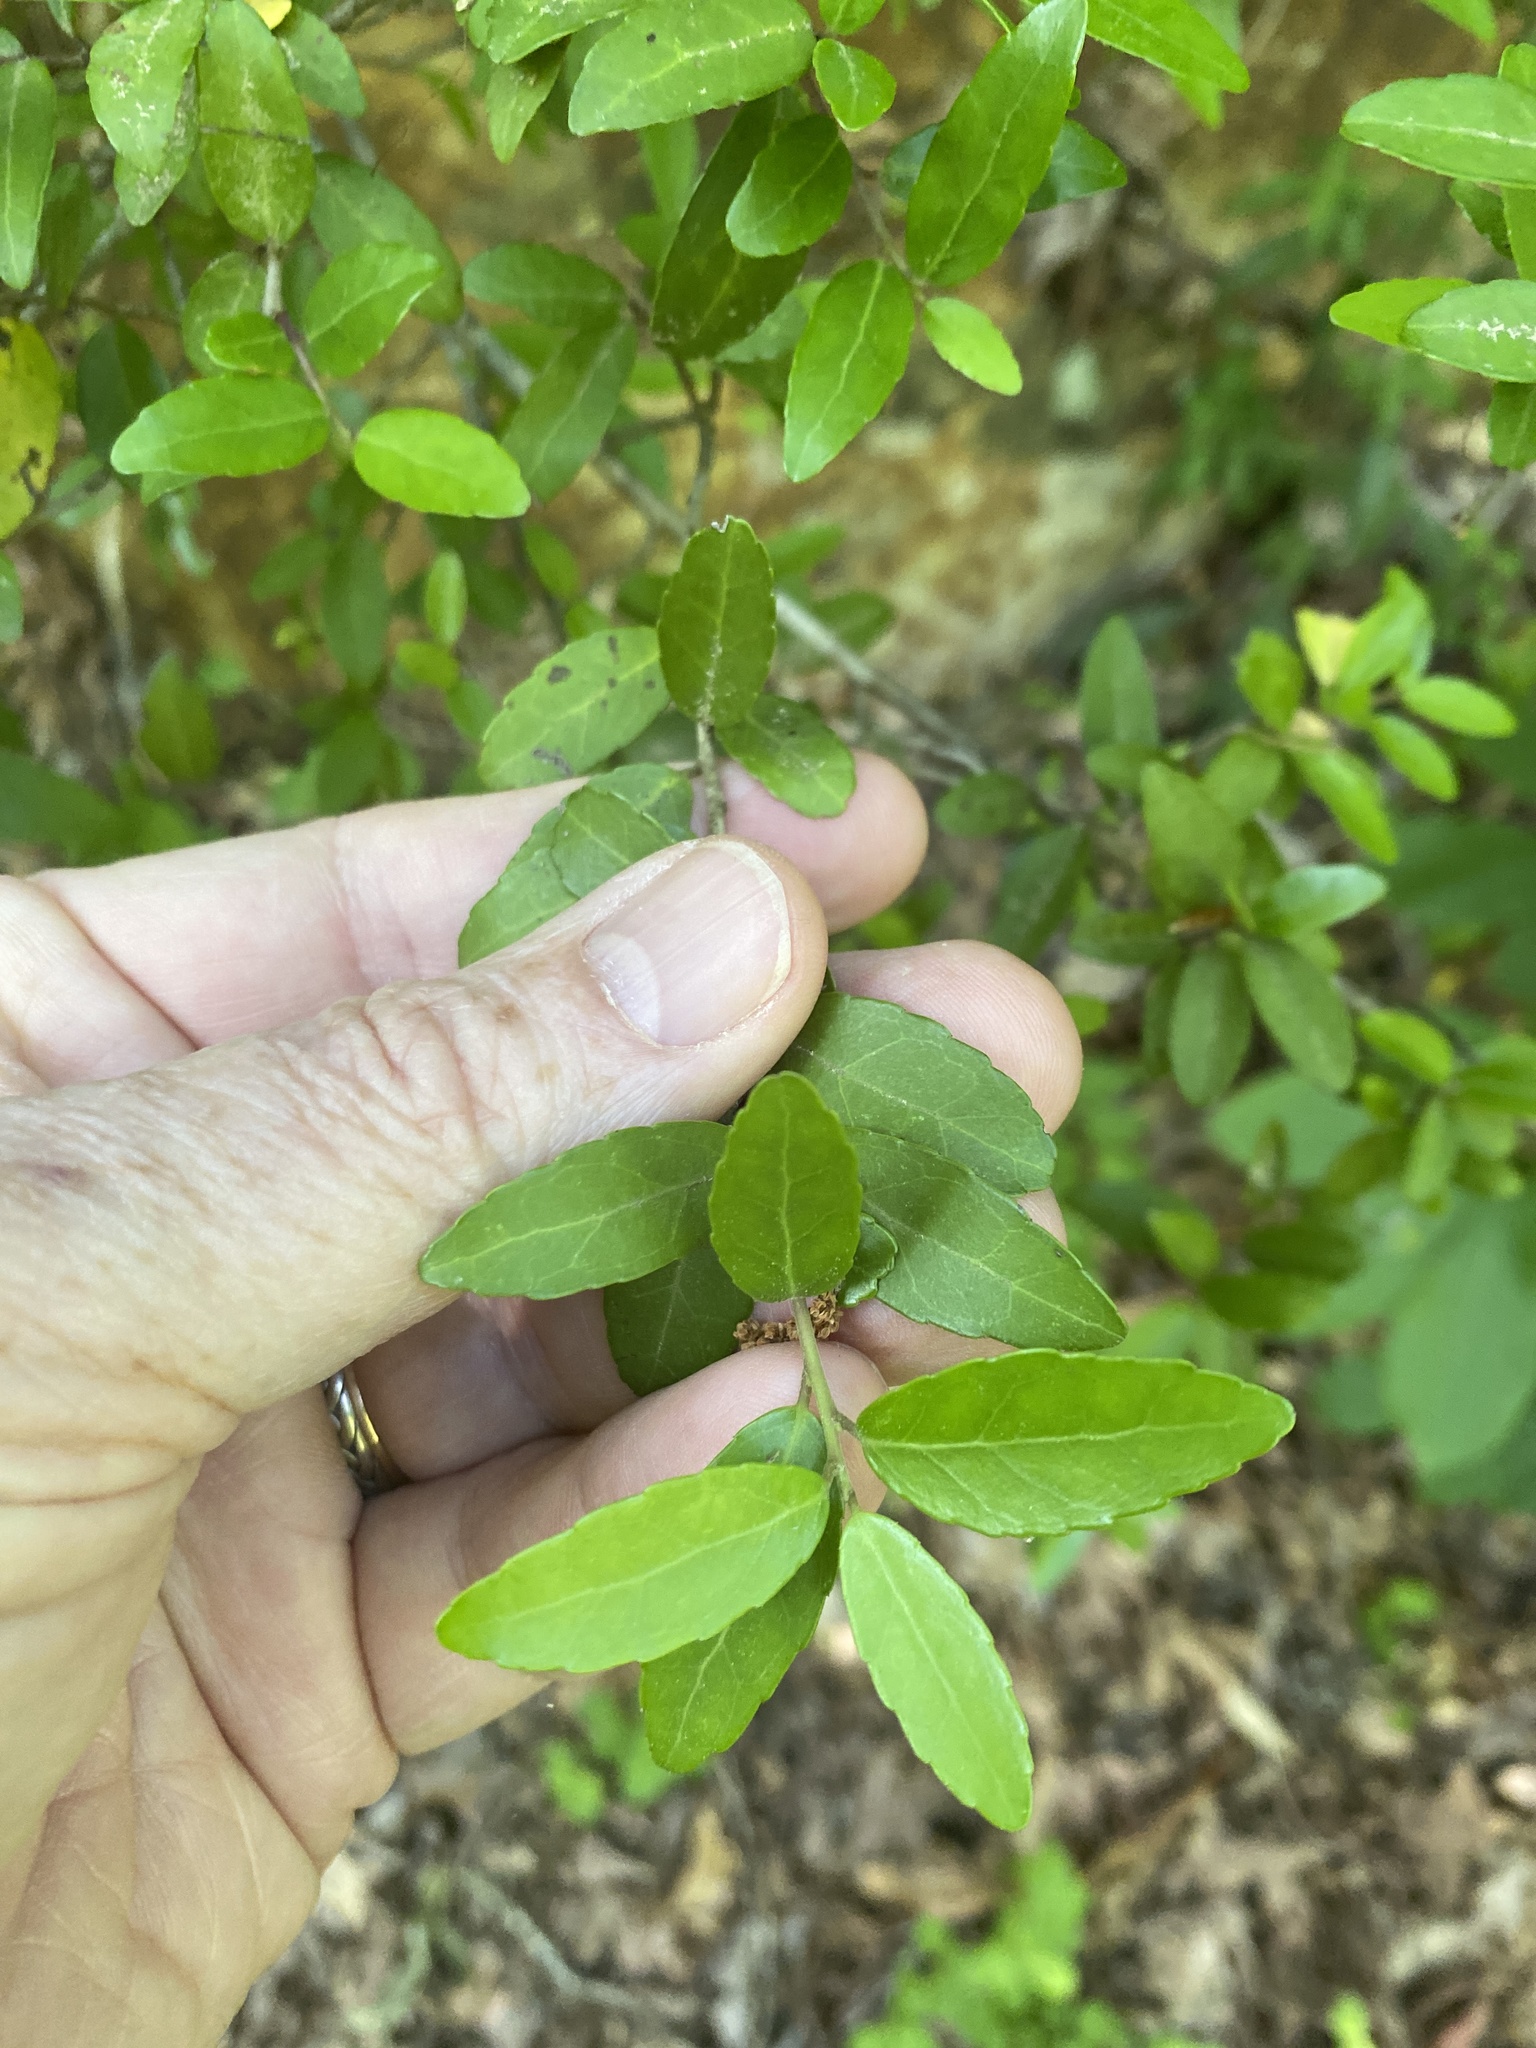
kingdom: Plantae
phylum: Tracheophyta
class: Magnoliopsida
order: Aquifoliales
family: Aquifoliaceae
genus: Ilex
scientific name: Ilex vomitoria
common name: Yaupon holly
